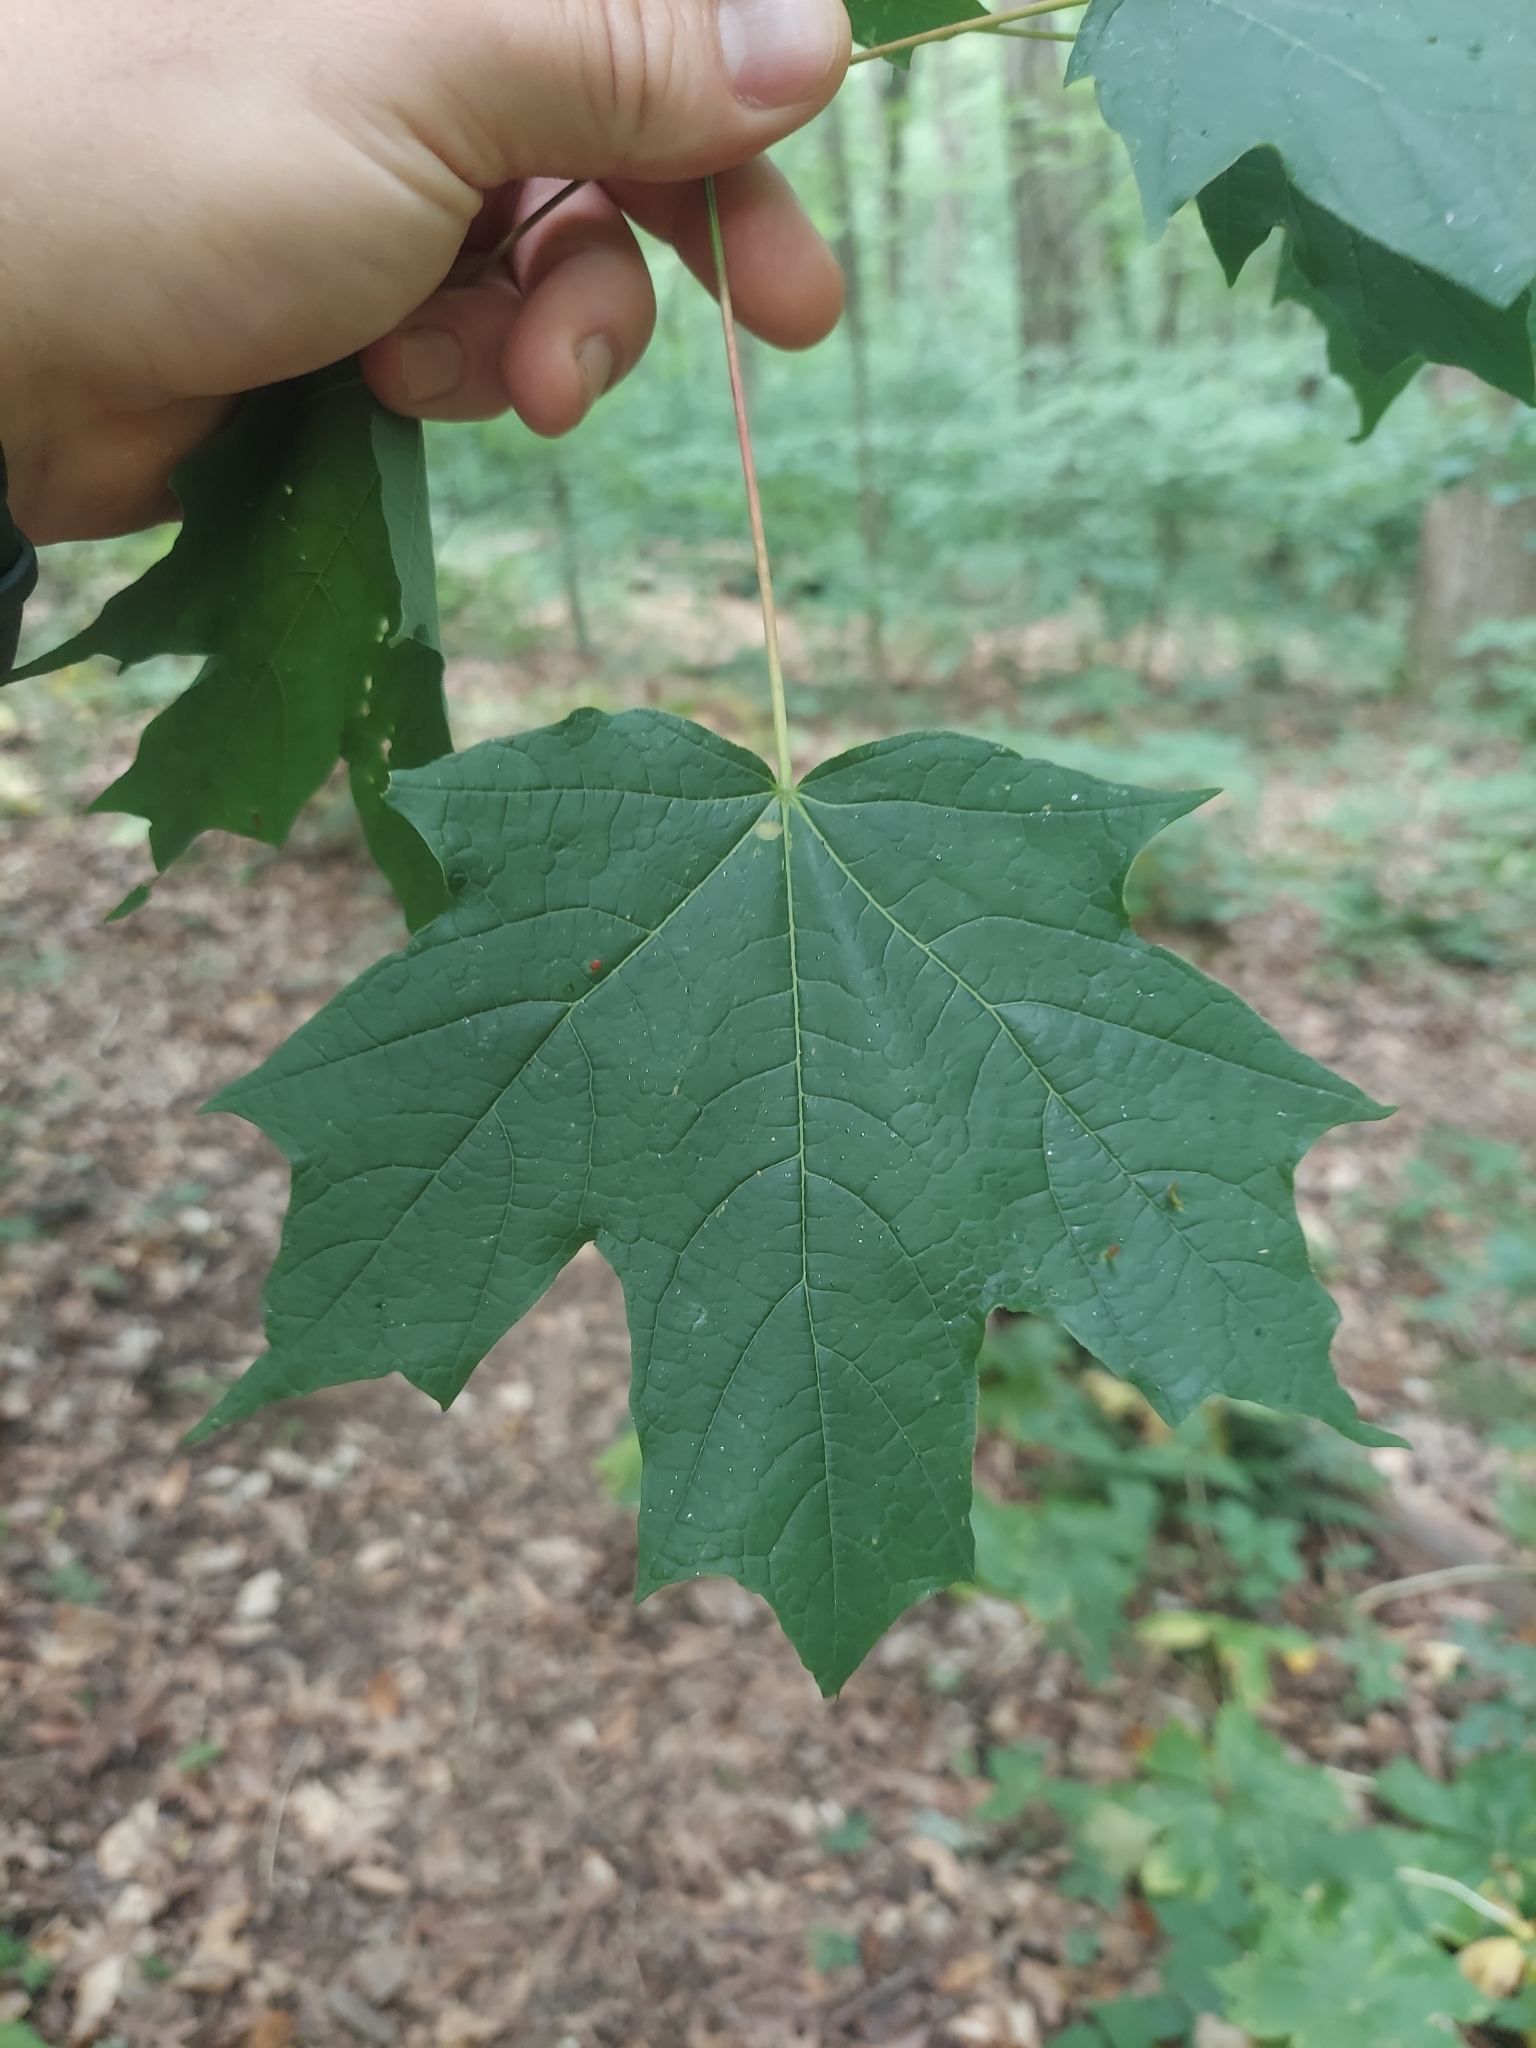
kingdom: Plantae
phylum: Tracheophyta
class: Magnoliopsida
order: Sapindales
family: Sapindaceae
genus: Acer
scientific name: Acer saccharum
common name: Sugar maple
